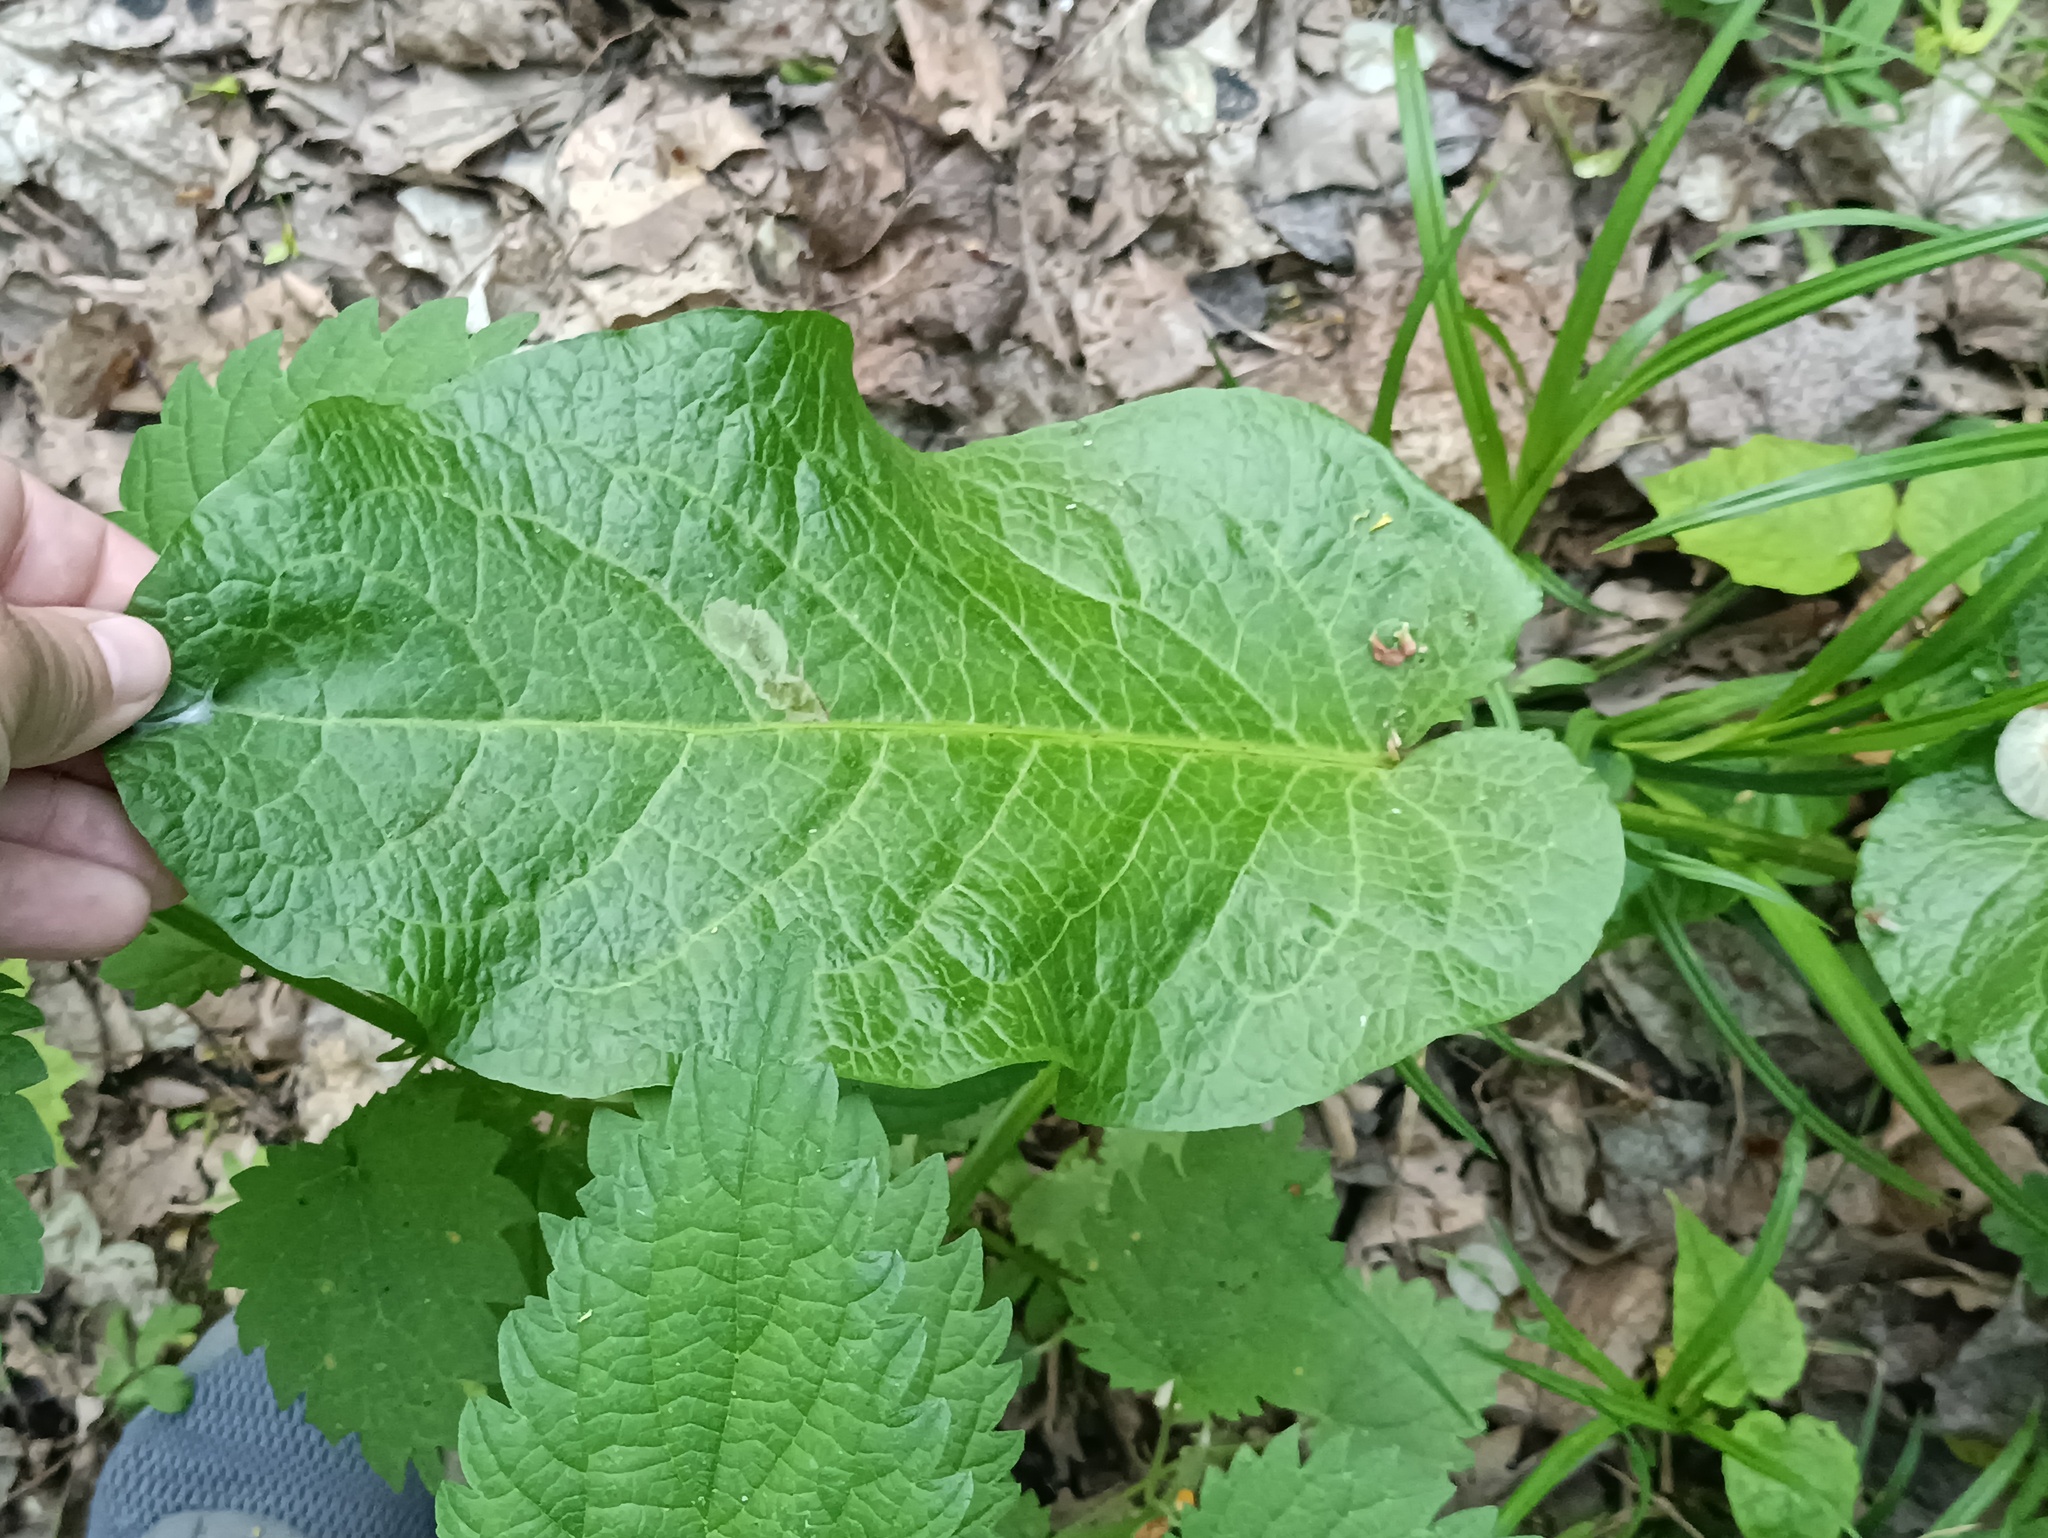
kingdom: Plantae
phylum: Tracheophyta
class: Magnoliopsida
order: Caryophyllales
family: Polygonaceae
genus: Rumex
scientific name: Rumex obtusifolius
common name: Bitter dock
